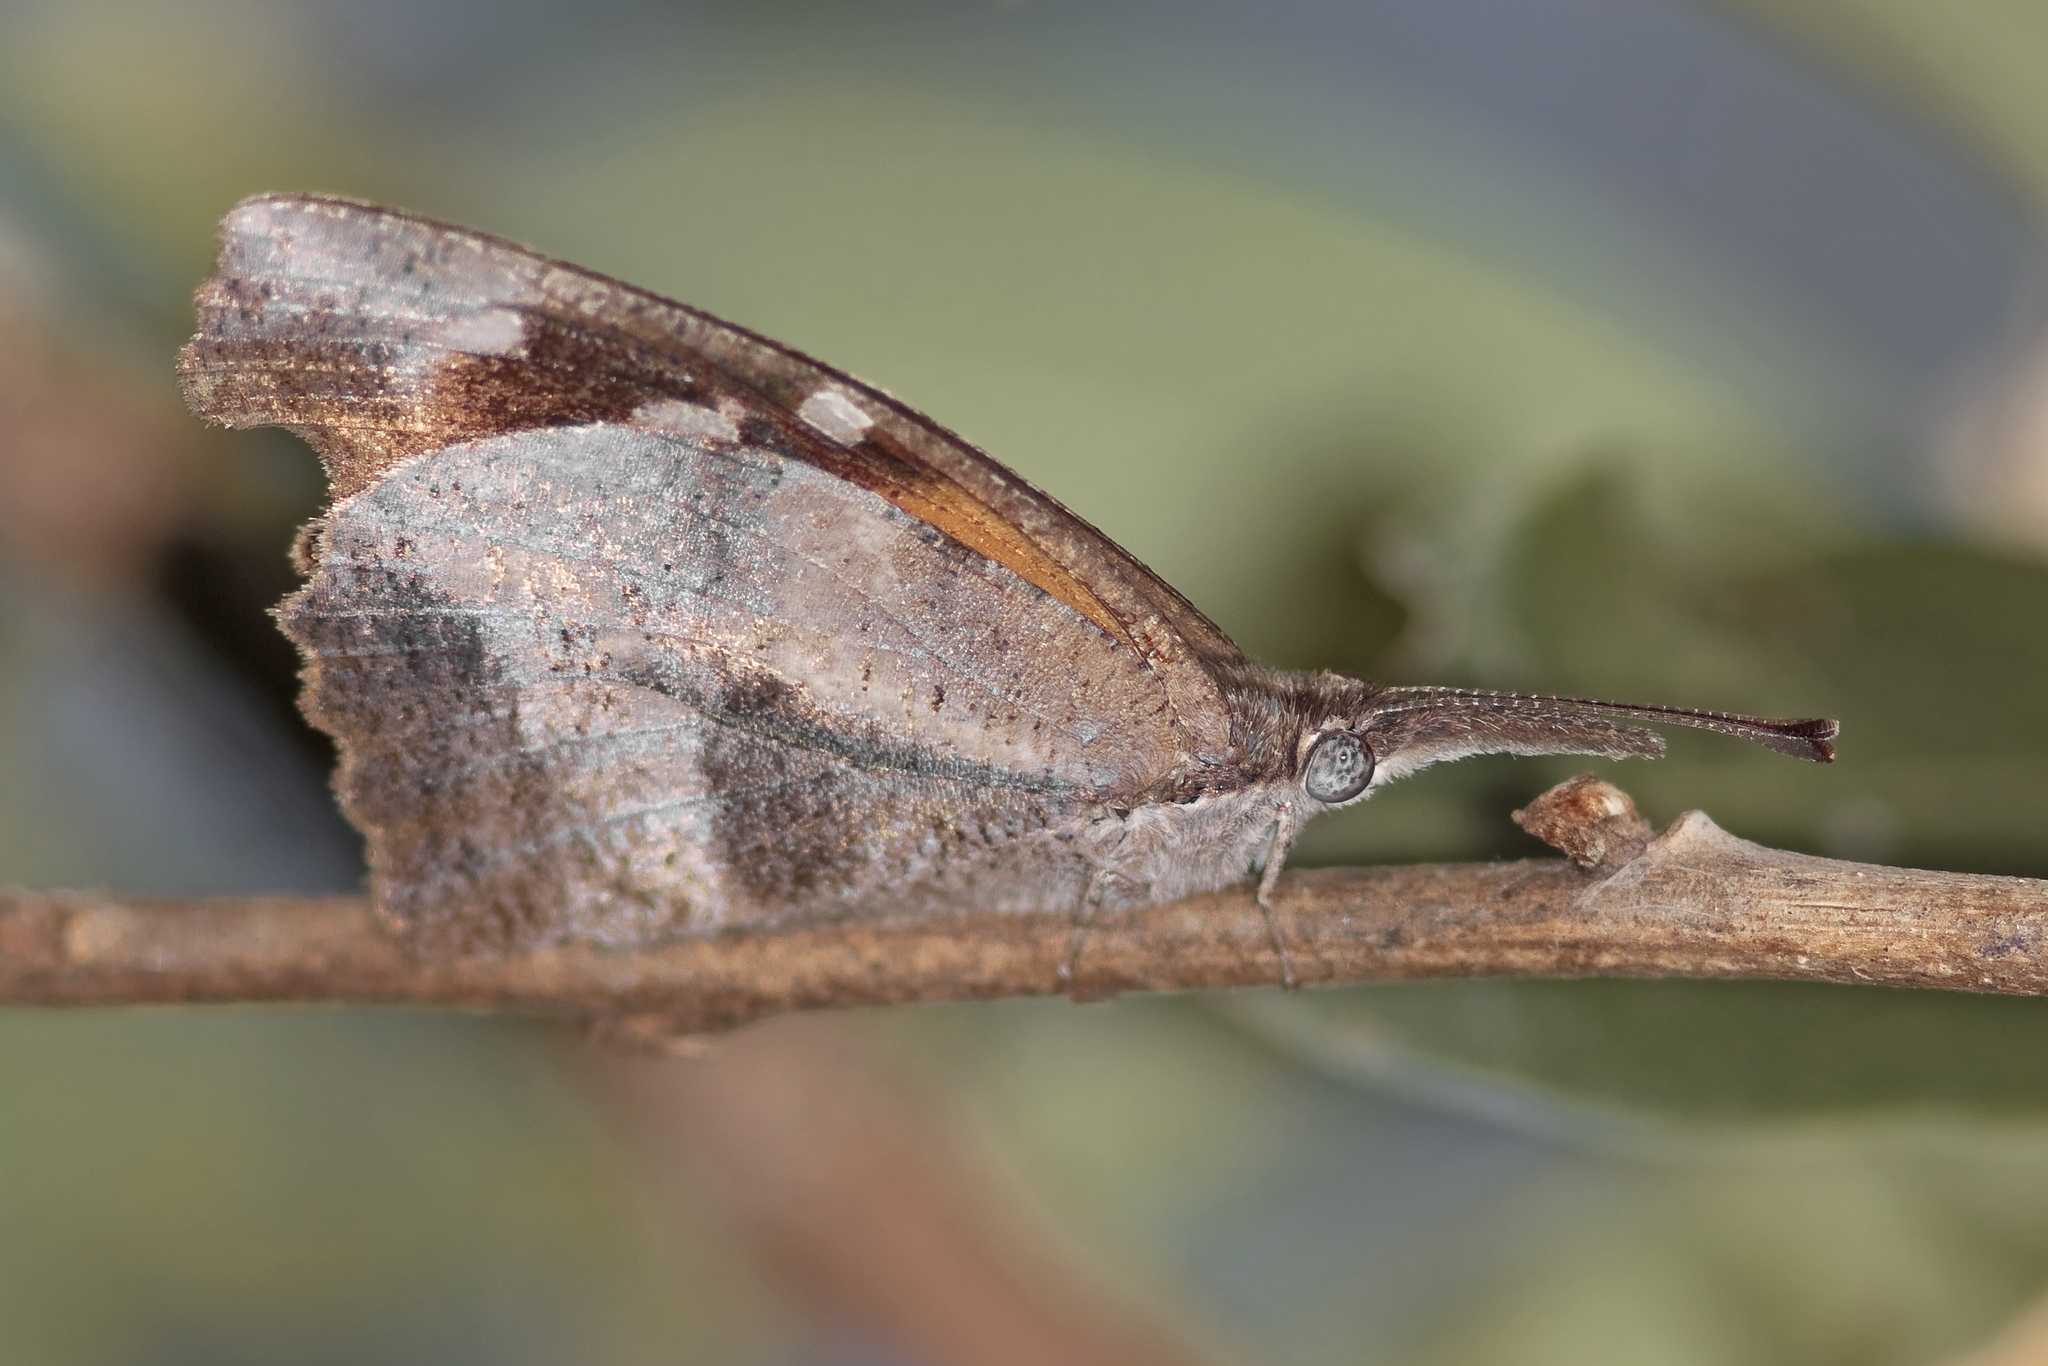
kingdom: Animalia
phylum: Arthropoda
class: Insecta
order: Lepidoptera
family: Nymphalidae
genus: Libytheana
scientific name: Libytheana carinenta
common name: American snout
